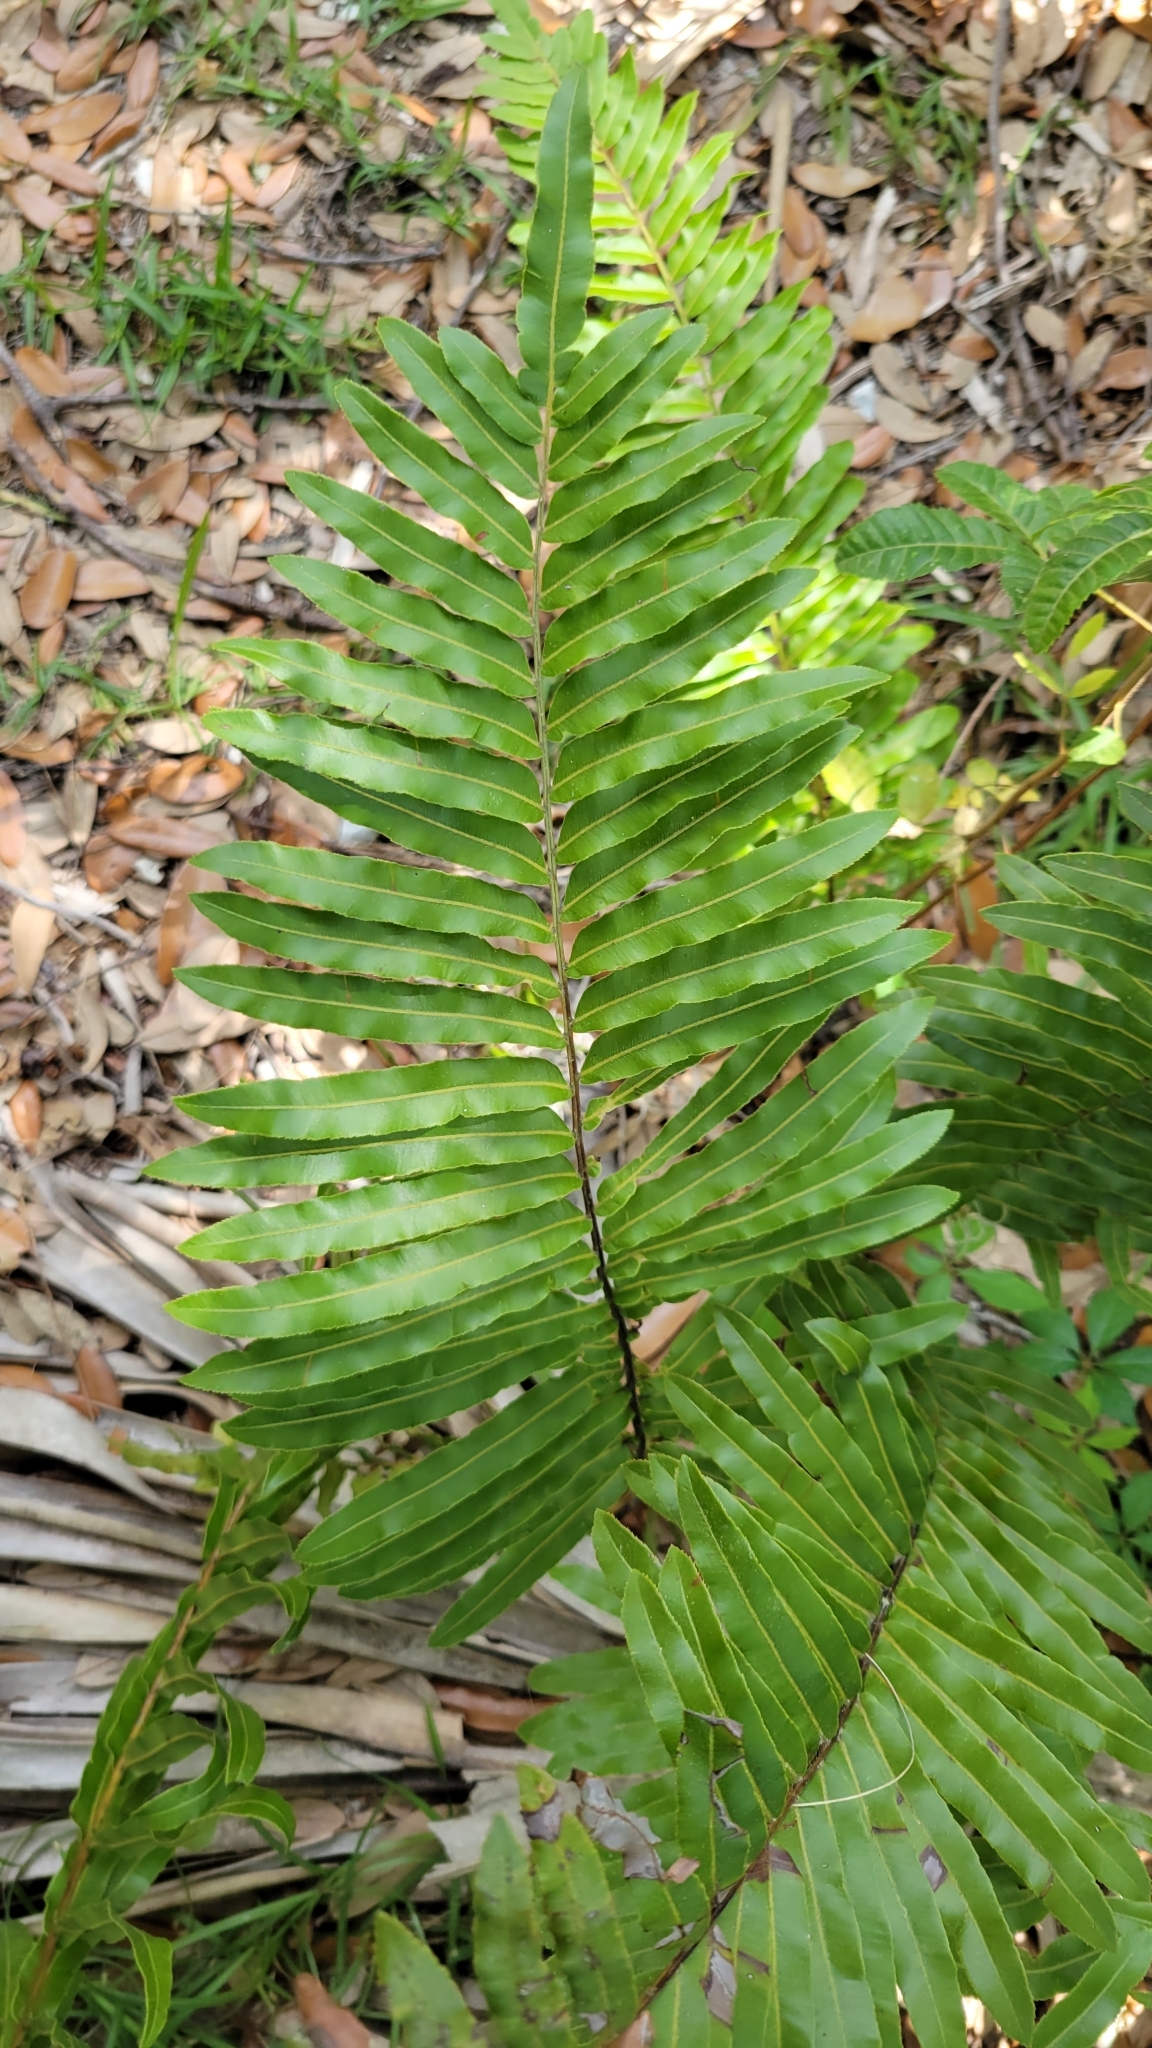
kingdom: Plantae
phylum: Tracheophyta
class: Polypodiopsida
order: Polypodiales
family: Blechnaceae
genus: Telmatoblechnum
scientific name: Telmatoblechnum serrulatum
